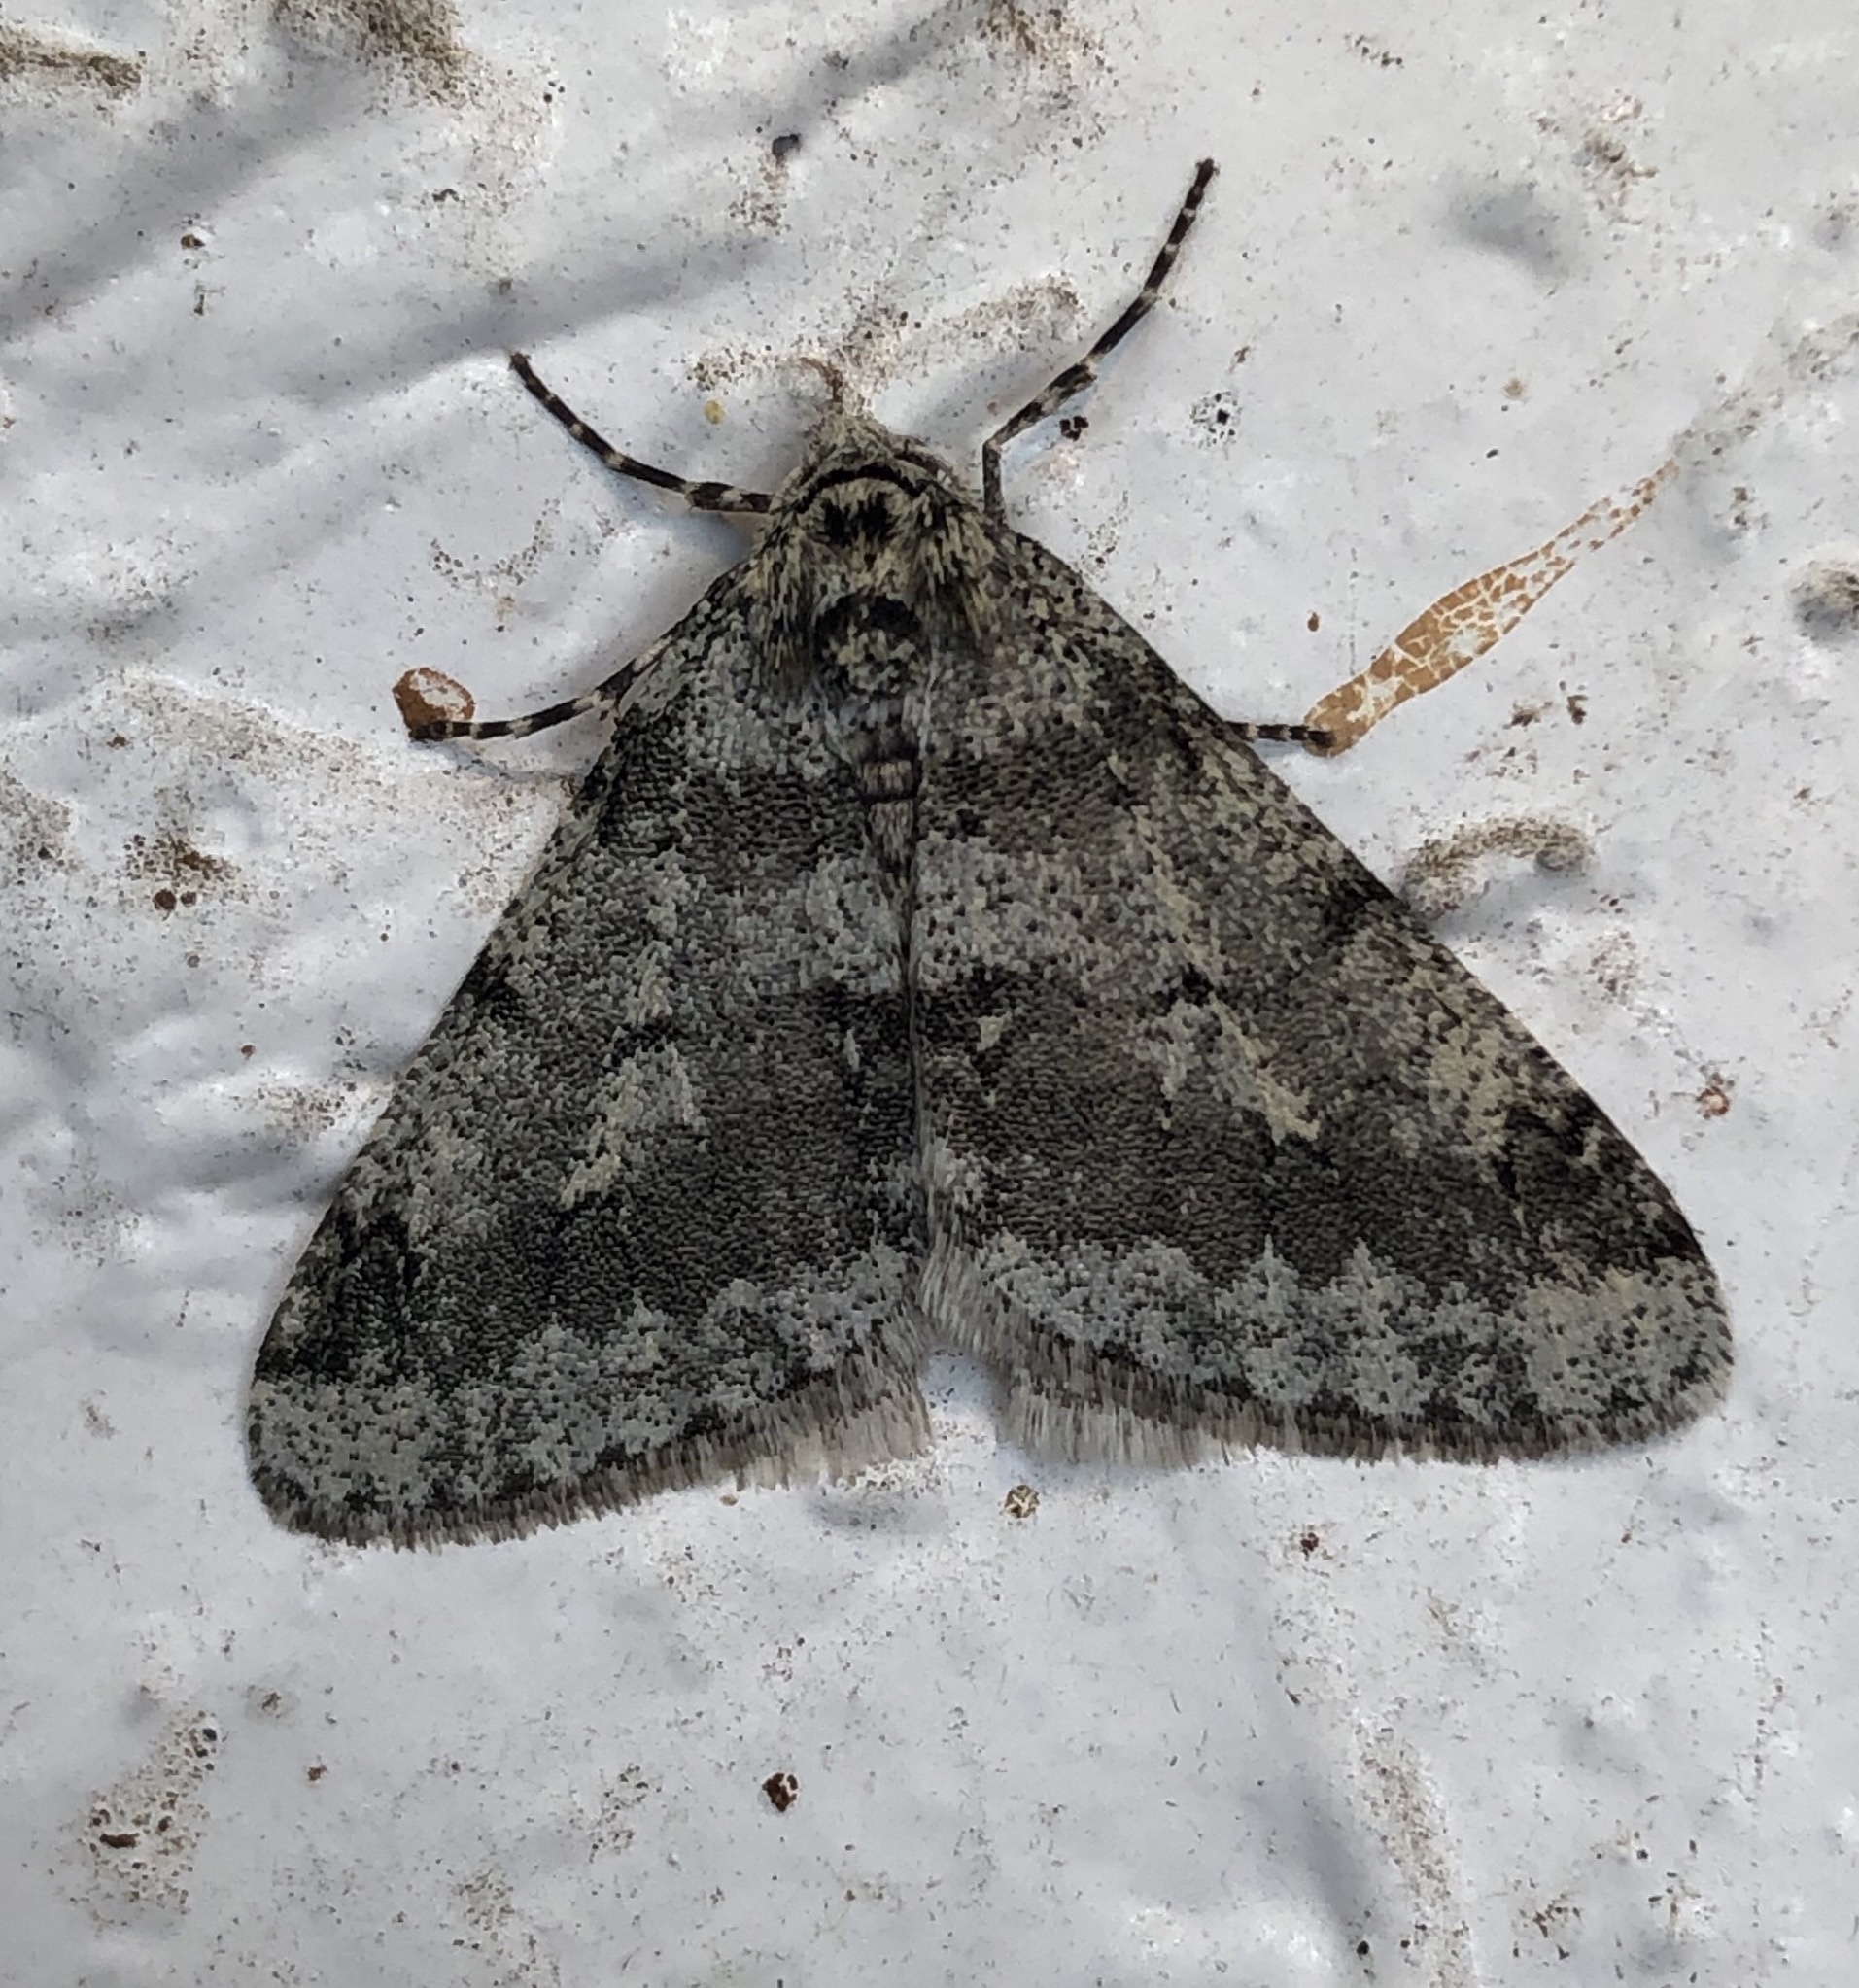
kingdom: Animalia
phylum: Arthropoda
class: Insecta
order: Lepidoptera
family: Geometridae
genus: Phigalia
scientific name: Phigalia strigataria
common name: Small phigalia
